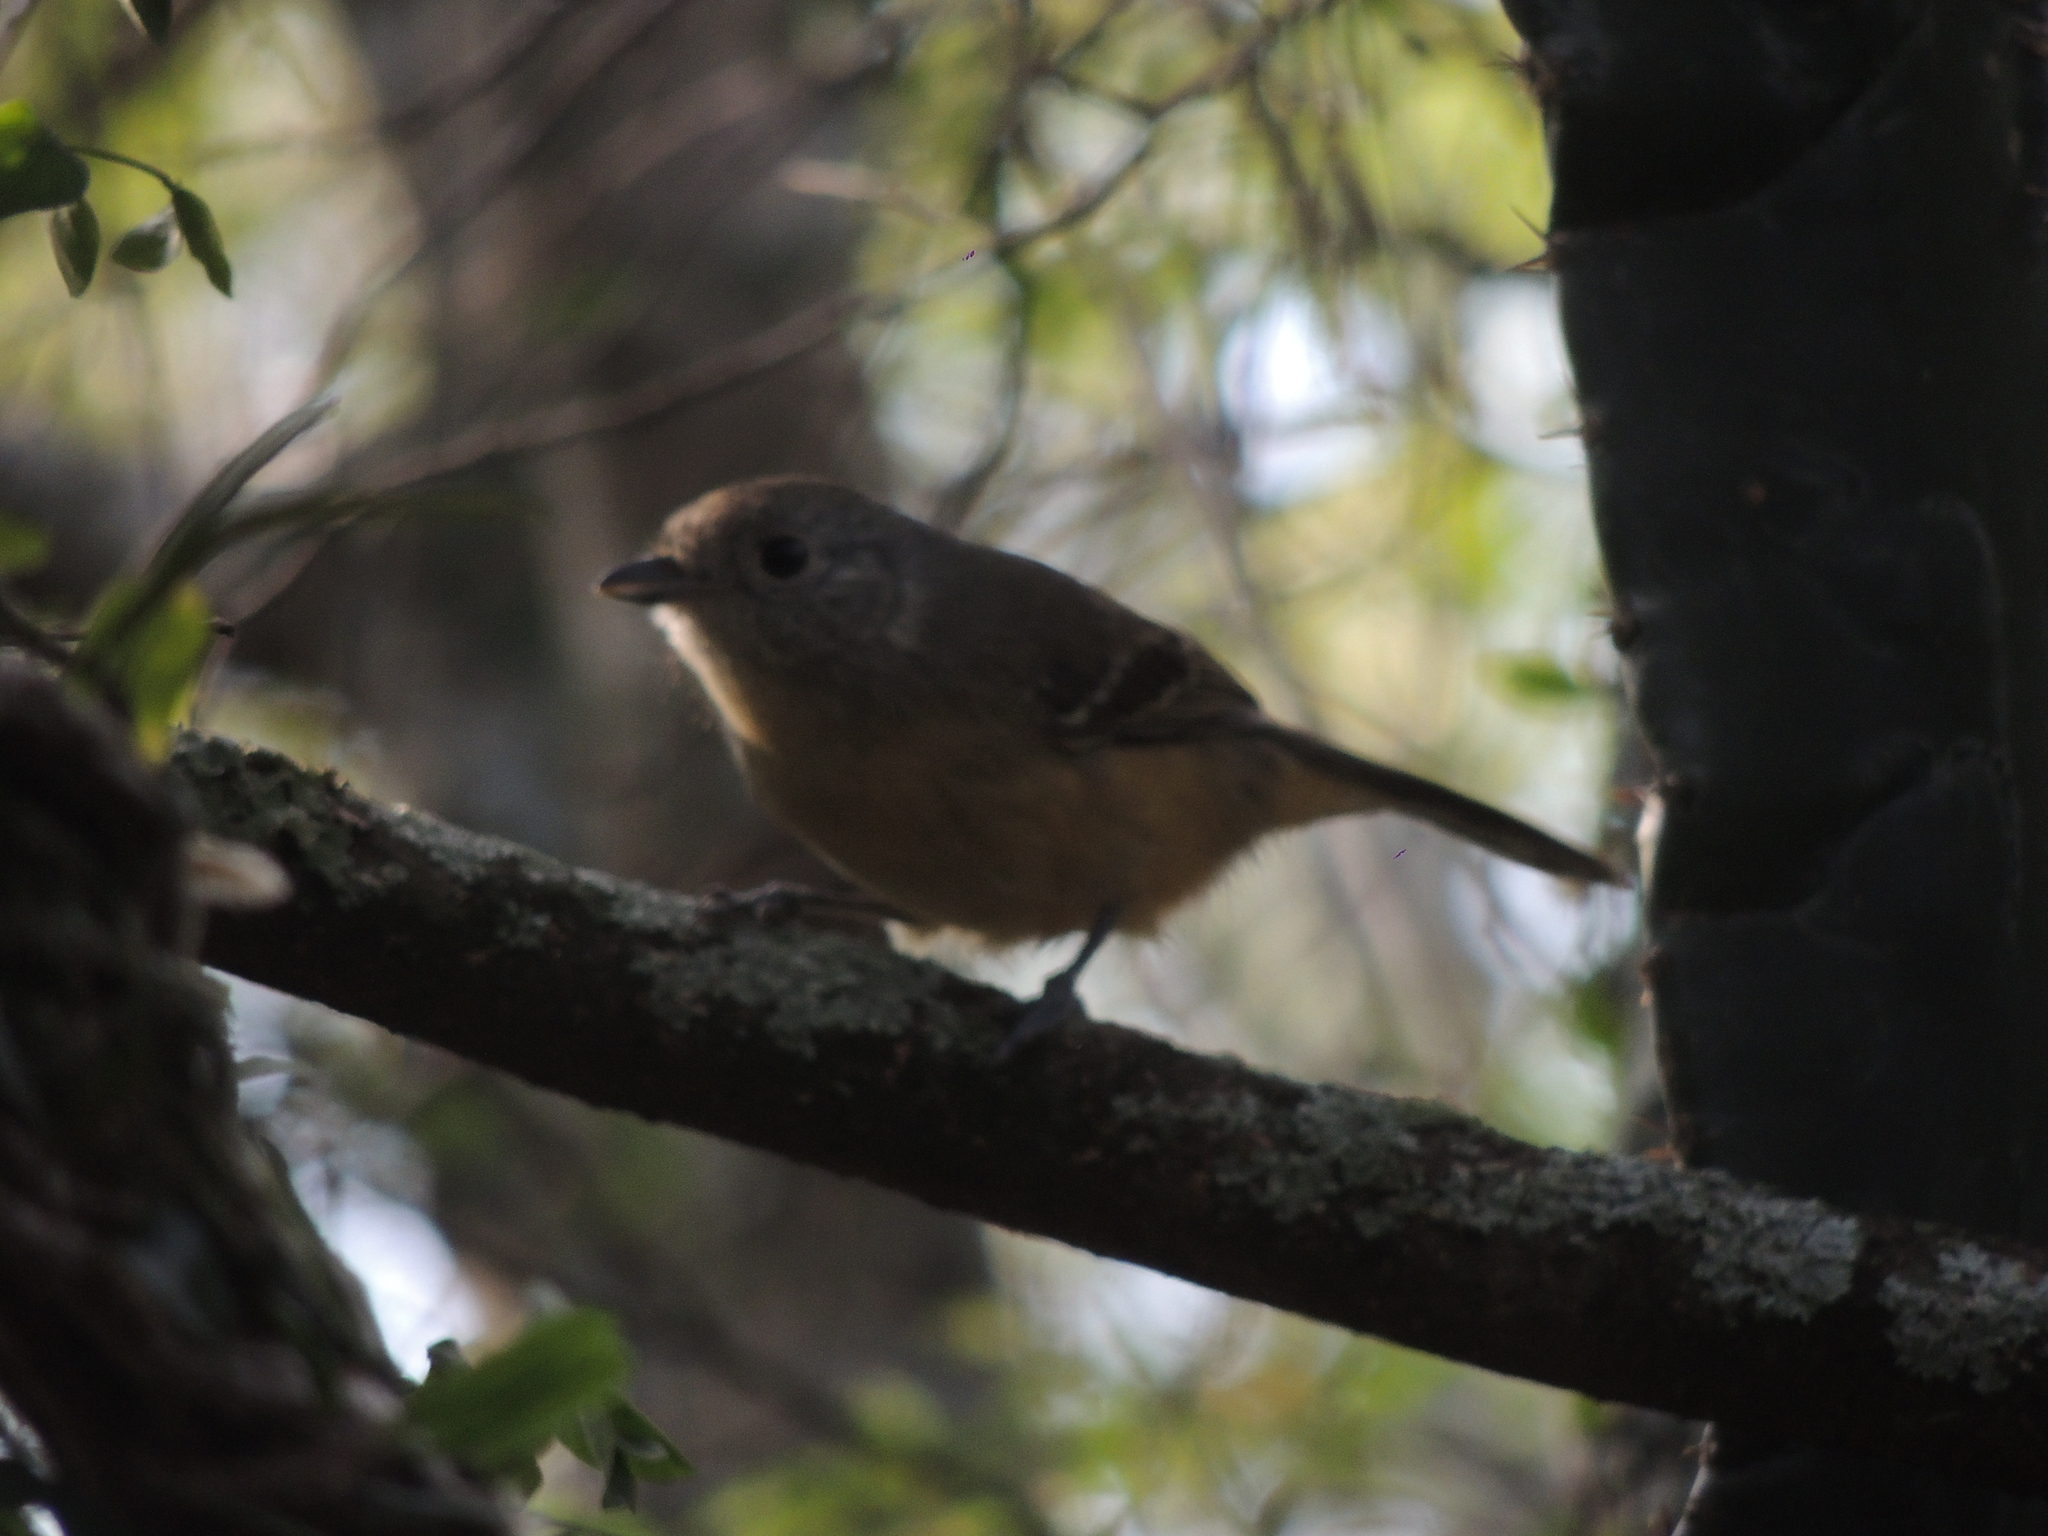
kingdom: Animalia
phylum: Chordata
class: Aves
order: Passeriformes
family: Thamnophilidae
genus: Thamnophilus
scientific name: Thamnophilus caerulescens
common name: Variable antshrike
